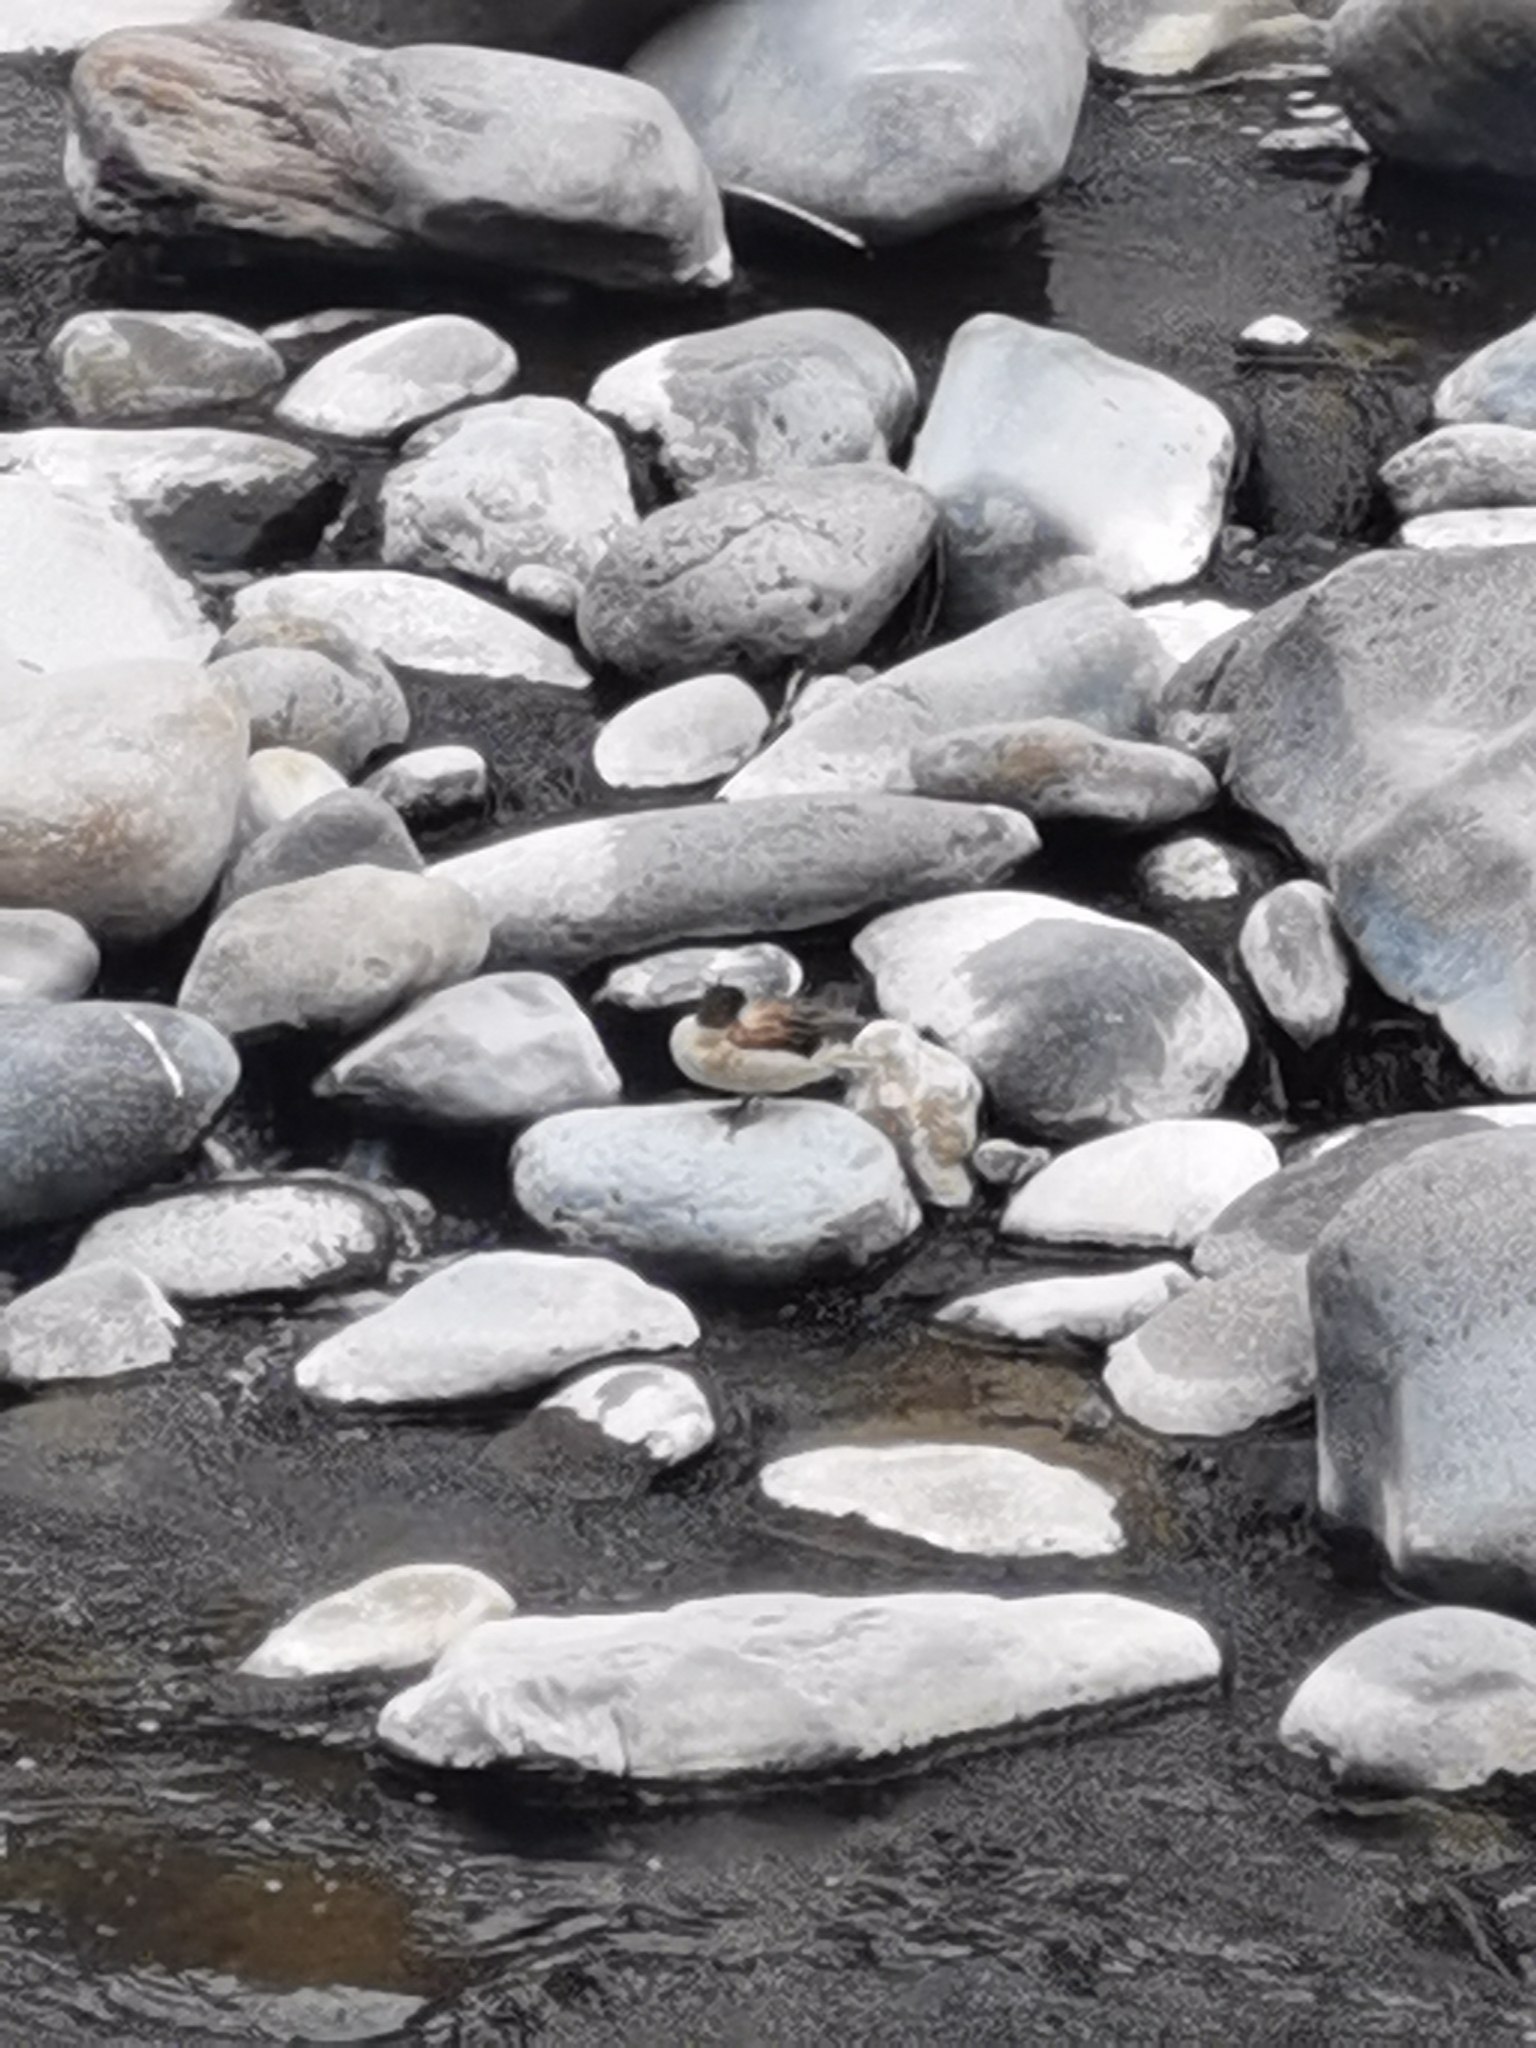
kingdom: Animalia
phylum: Chordata
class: Aves
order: Anseriformes
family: Anatidae
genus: Anas
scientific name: Anas flavirostris
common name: Yellow-billed teal
